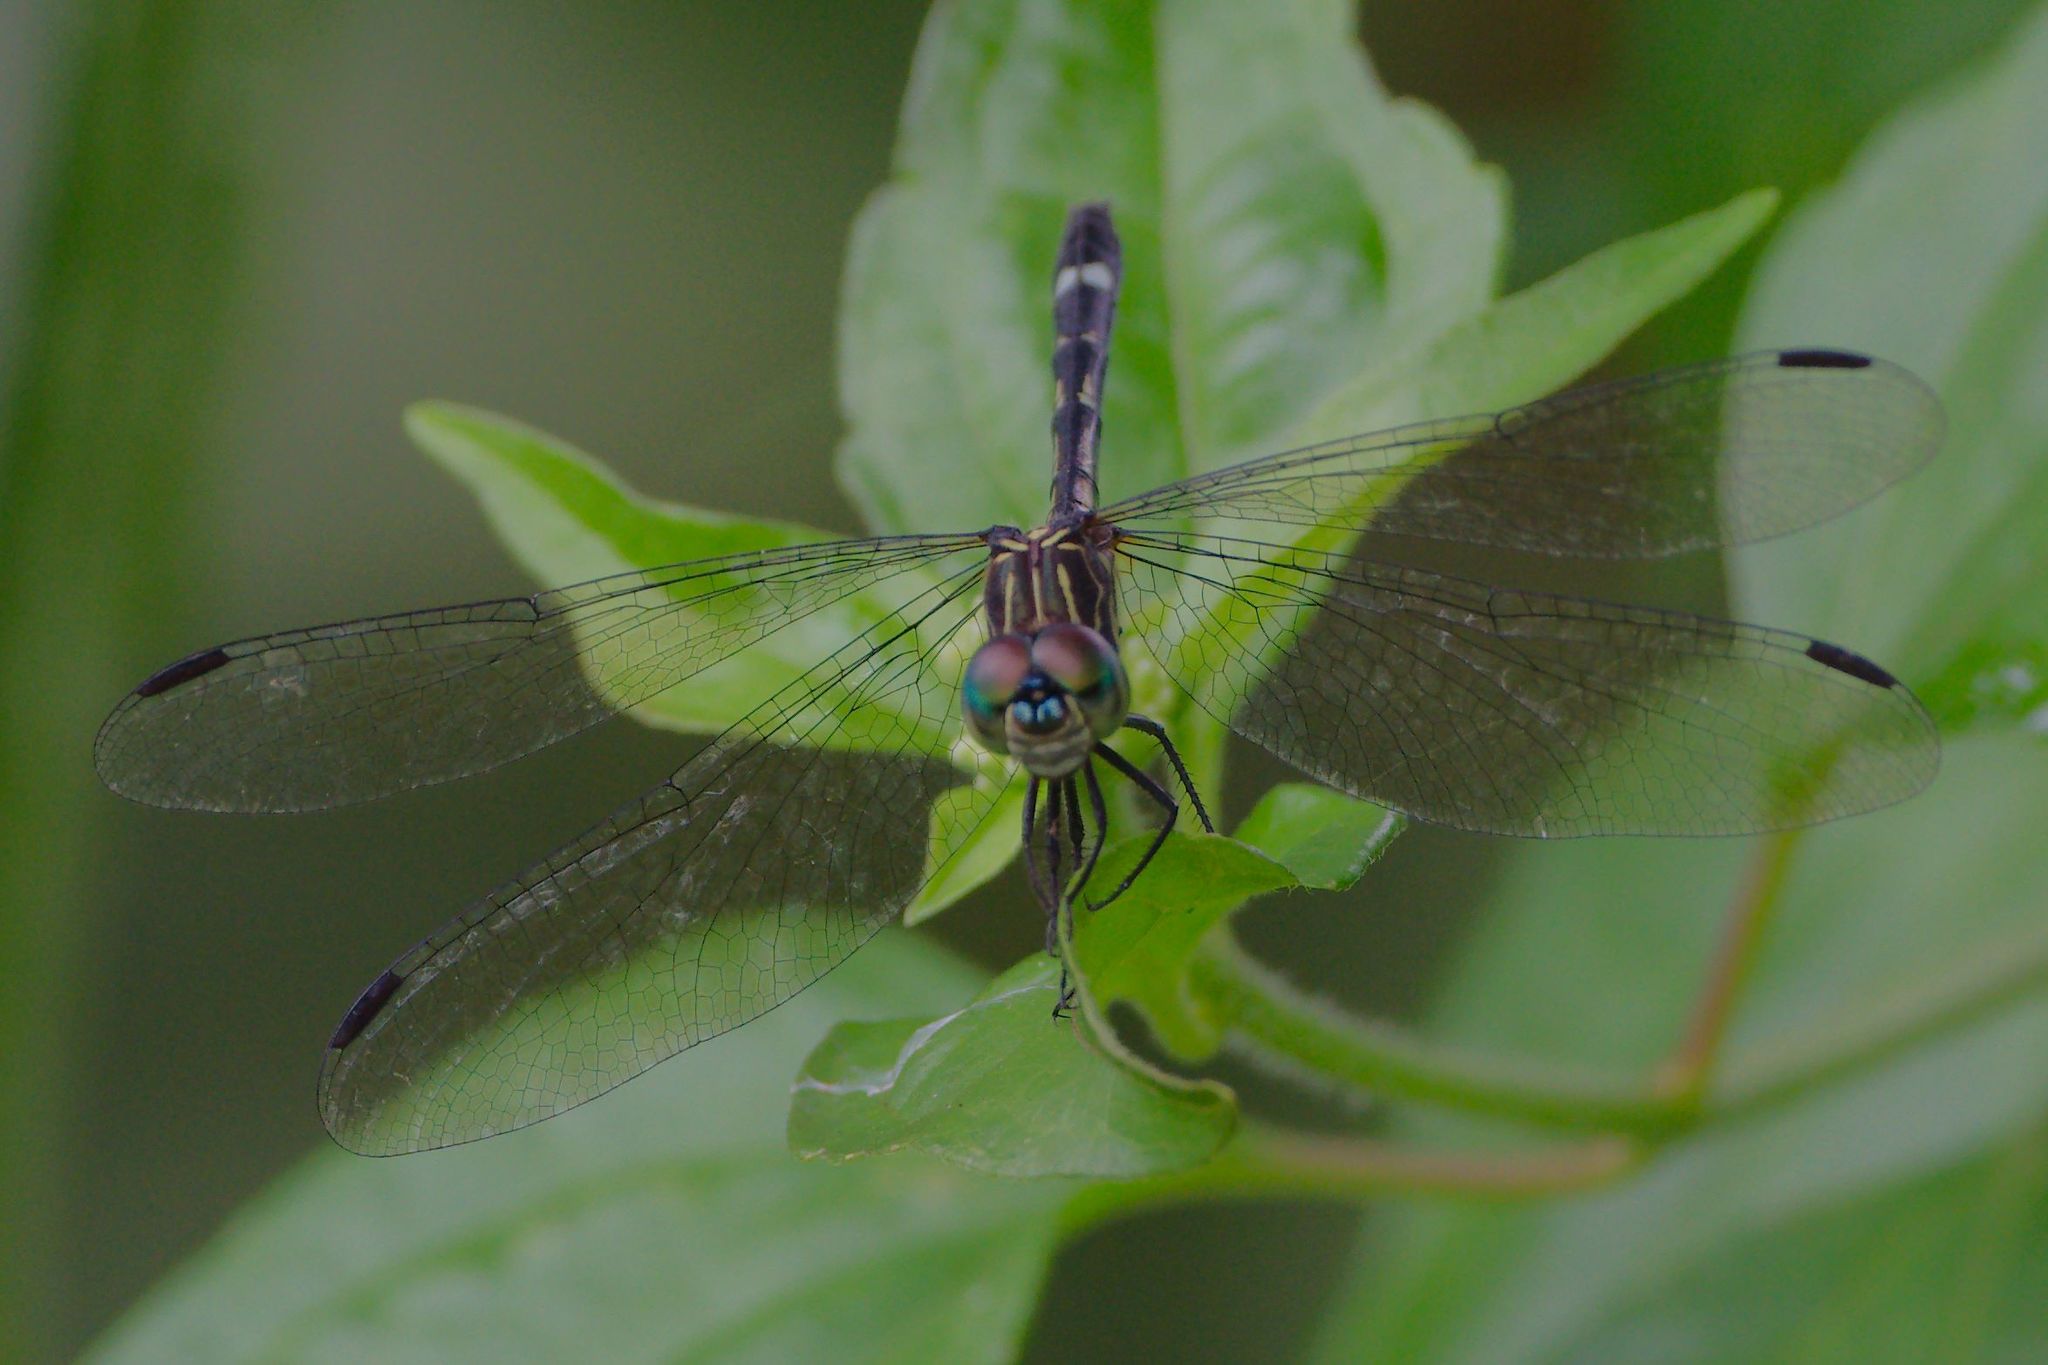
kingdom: Animalia
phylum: Arthropoda
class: Insecta
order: Odonata
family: Libellulidae
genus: Micrathyria
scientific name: Micrathyria didyma
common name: Three-striped dasher
